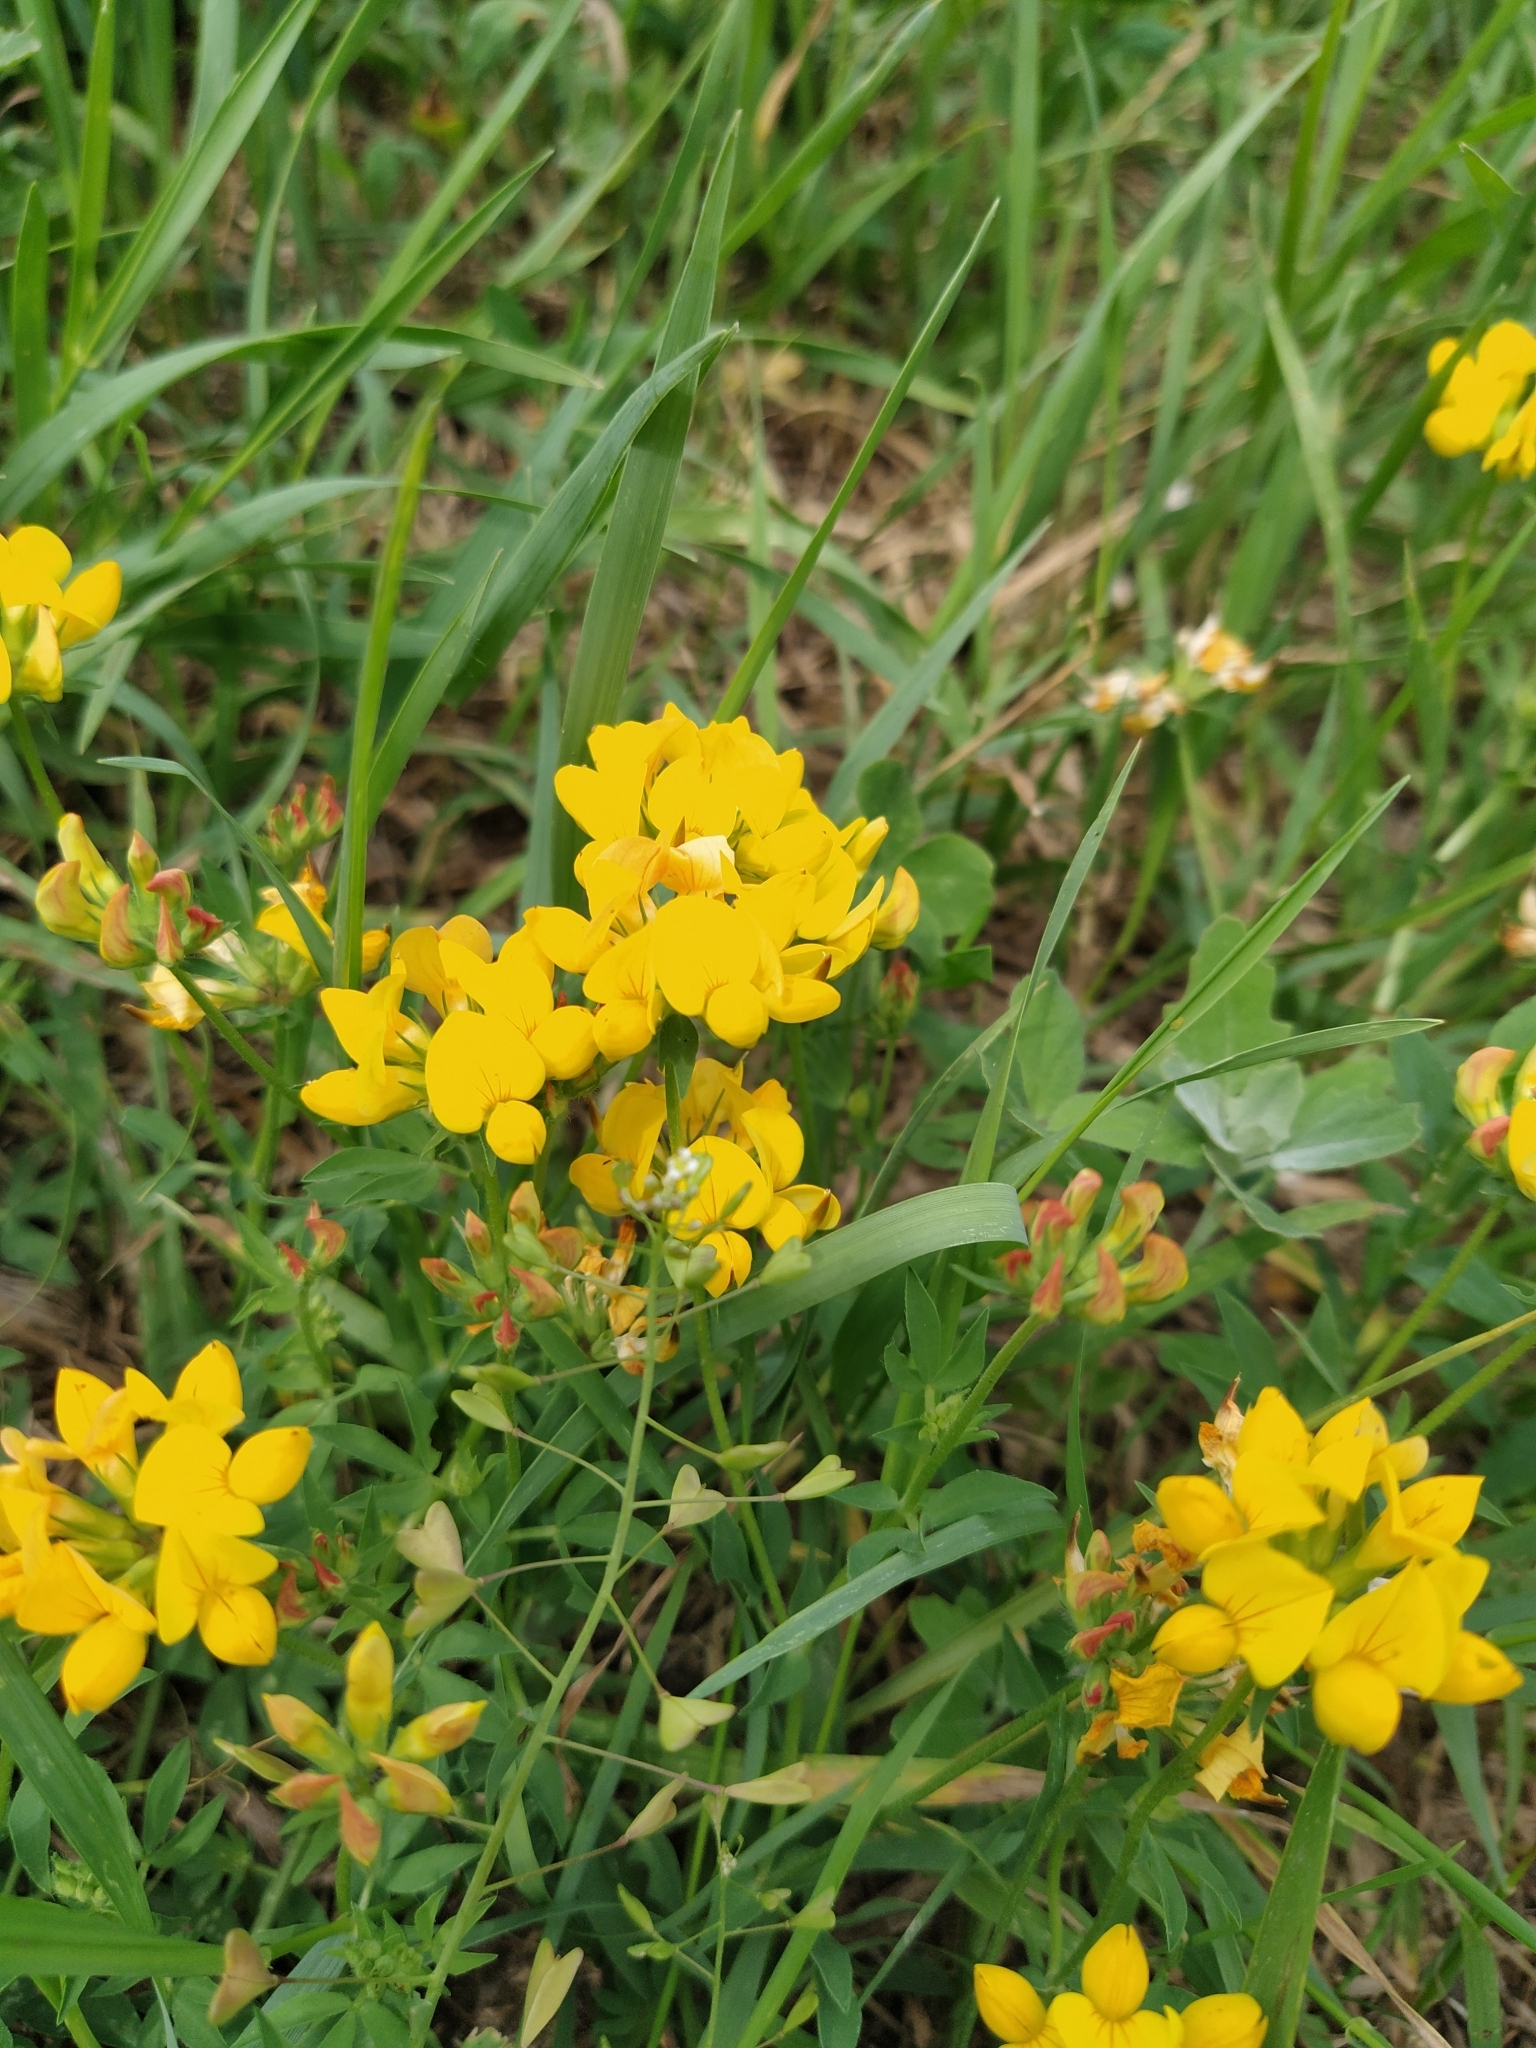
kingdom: Plantae
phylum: Tracheophyta
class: Magnoliopsida
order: Fabales
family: Fabaceae
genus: Lotus
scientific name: Lotus corniculatus
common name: Common bird's-foot-trefoil
